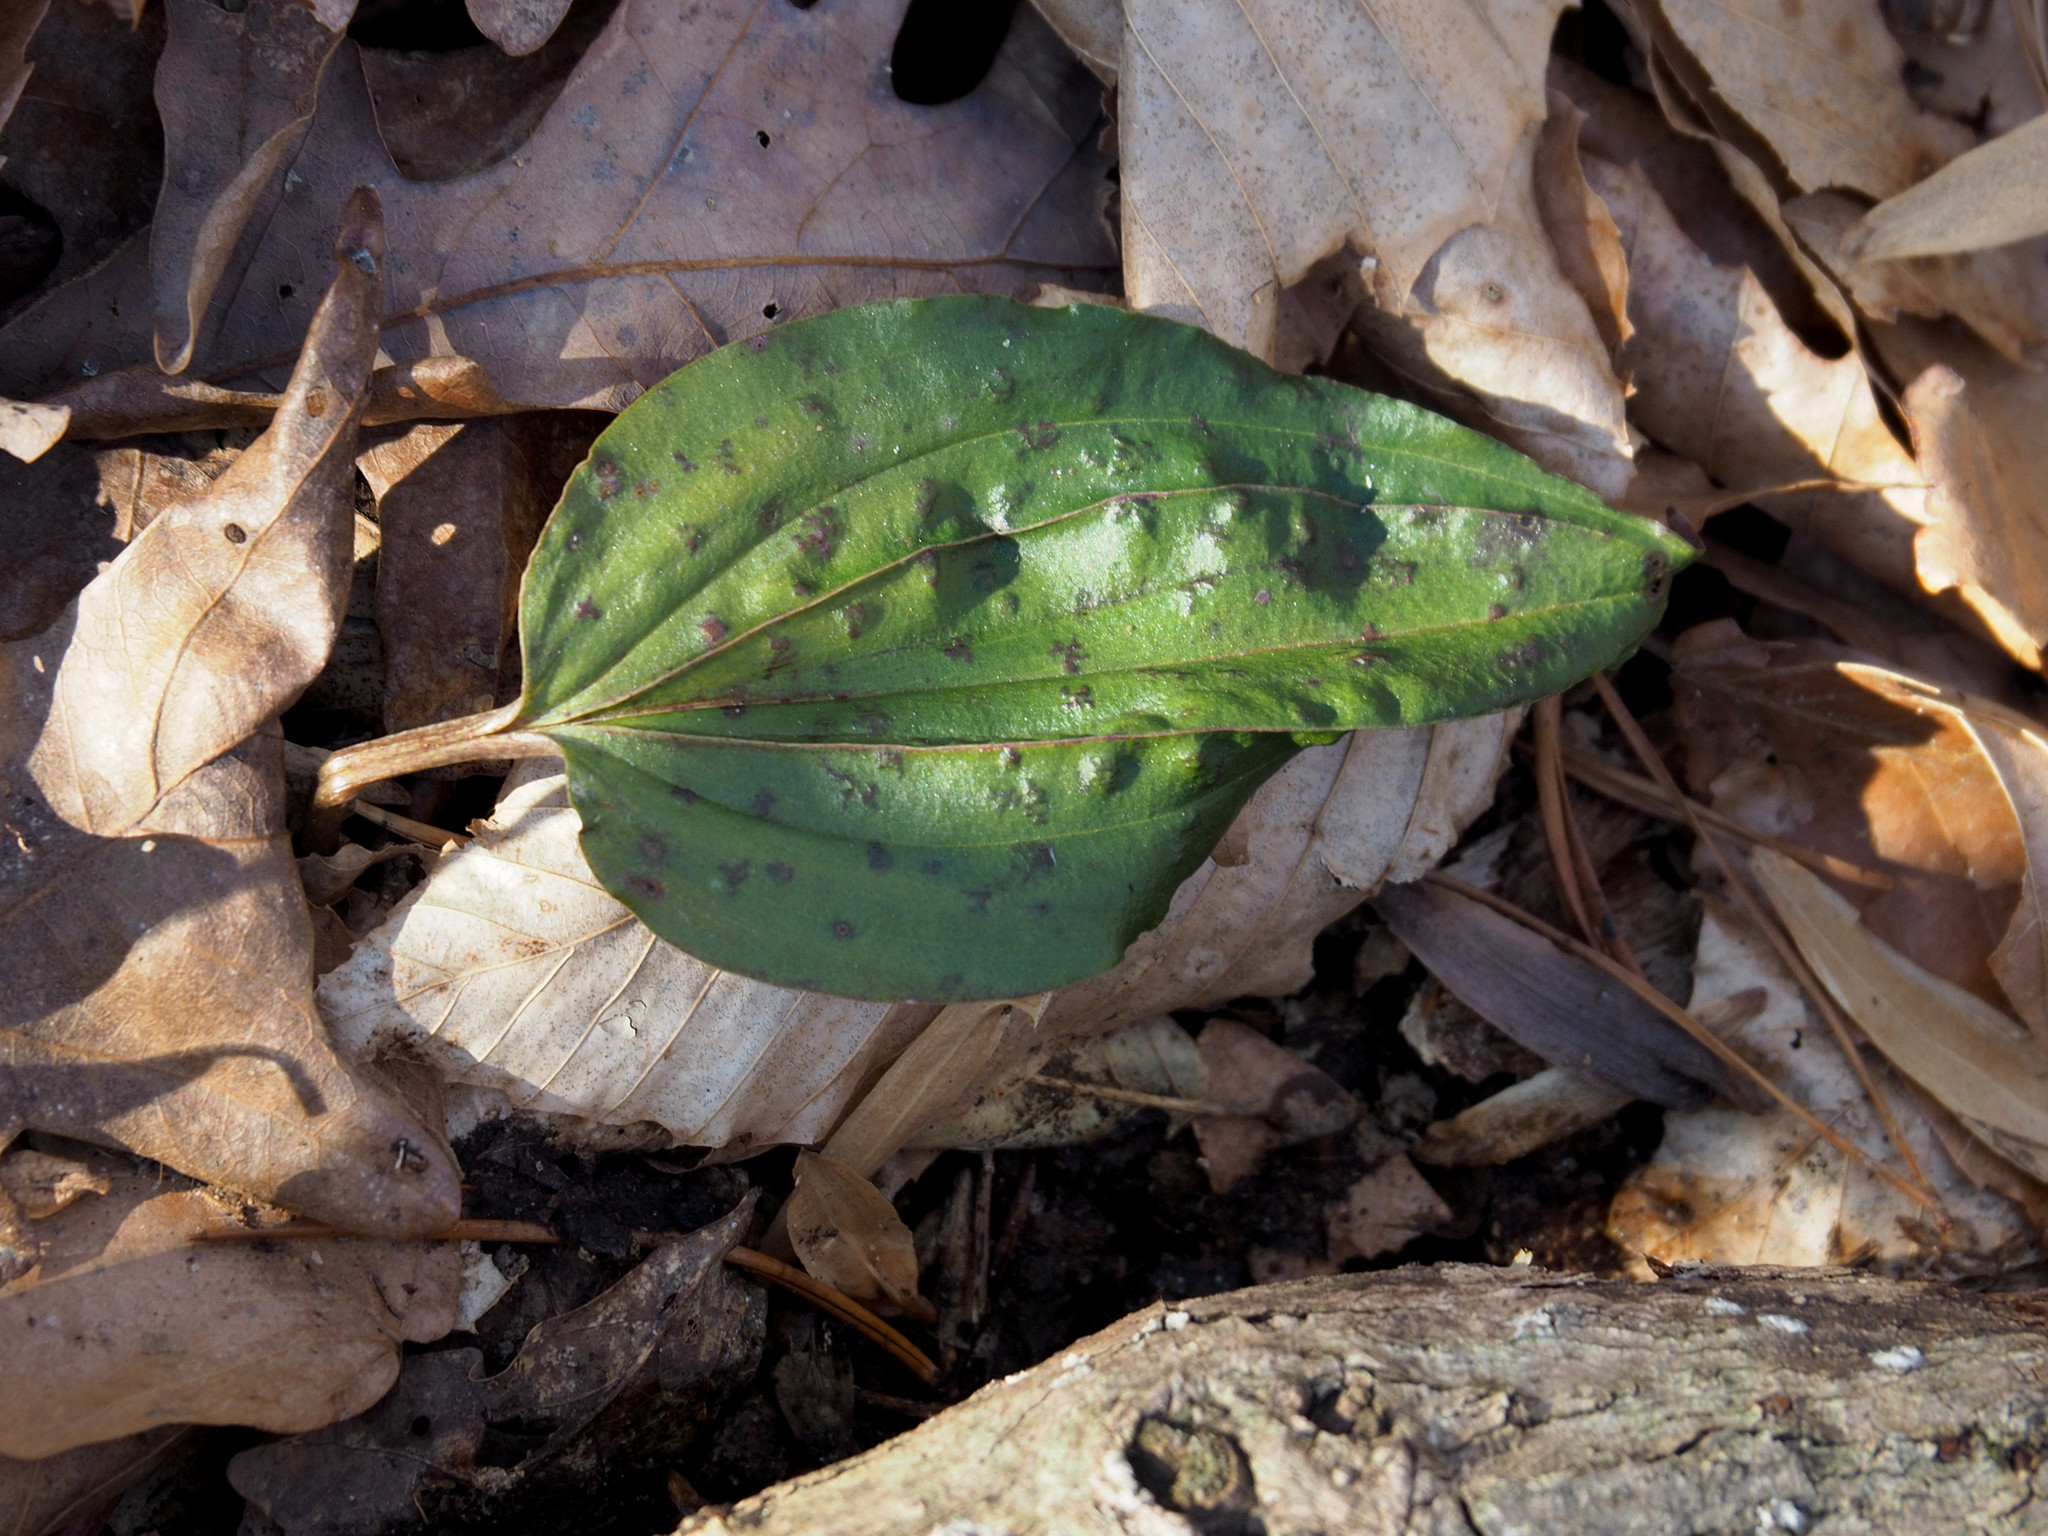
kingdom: Plantae
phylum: Tracheophyta
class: Liliopsida
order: Asparagales
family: Orchidaceae
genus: Tipularia
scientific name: Tipularia discolor
